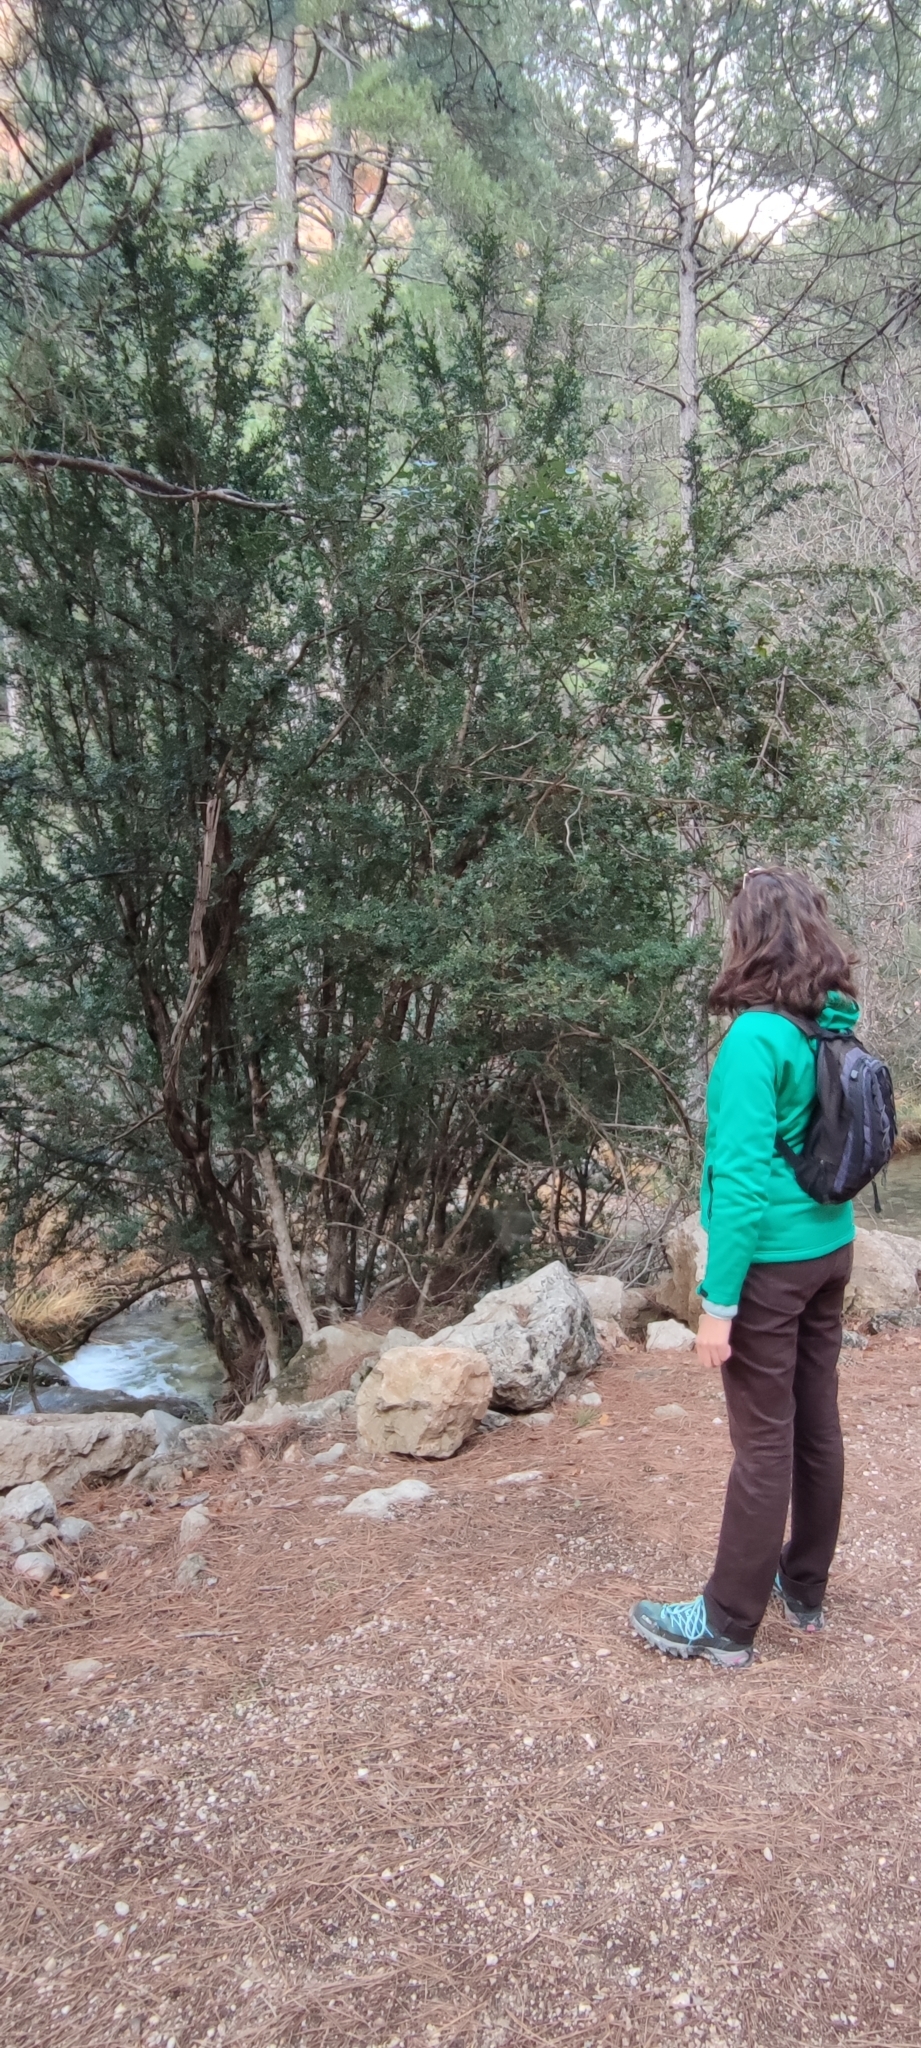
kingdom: Plantae
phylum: Tracheophyta
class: Magnoliopsida
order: Buxales
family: Buxaceae
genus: Buxus
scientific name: Buxus sempervirens
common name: Box
